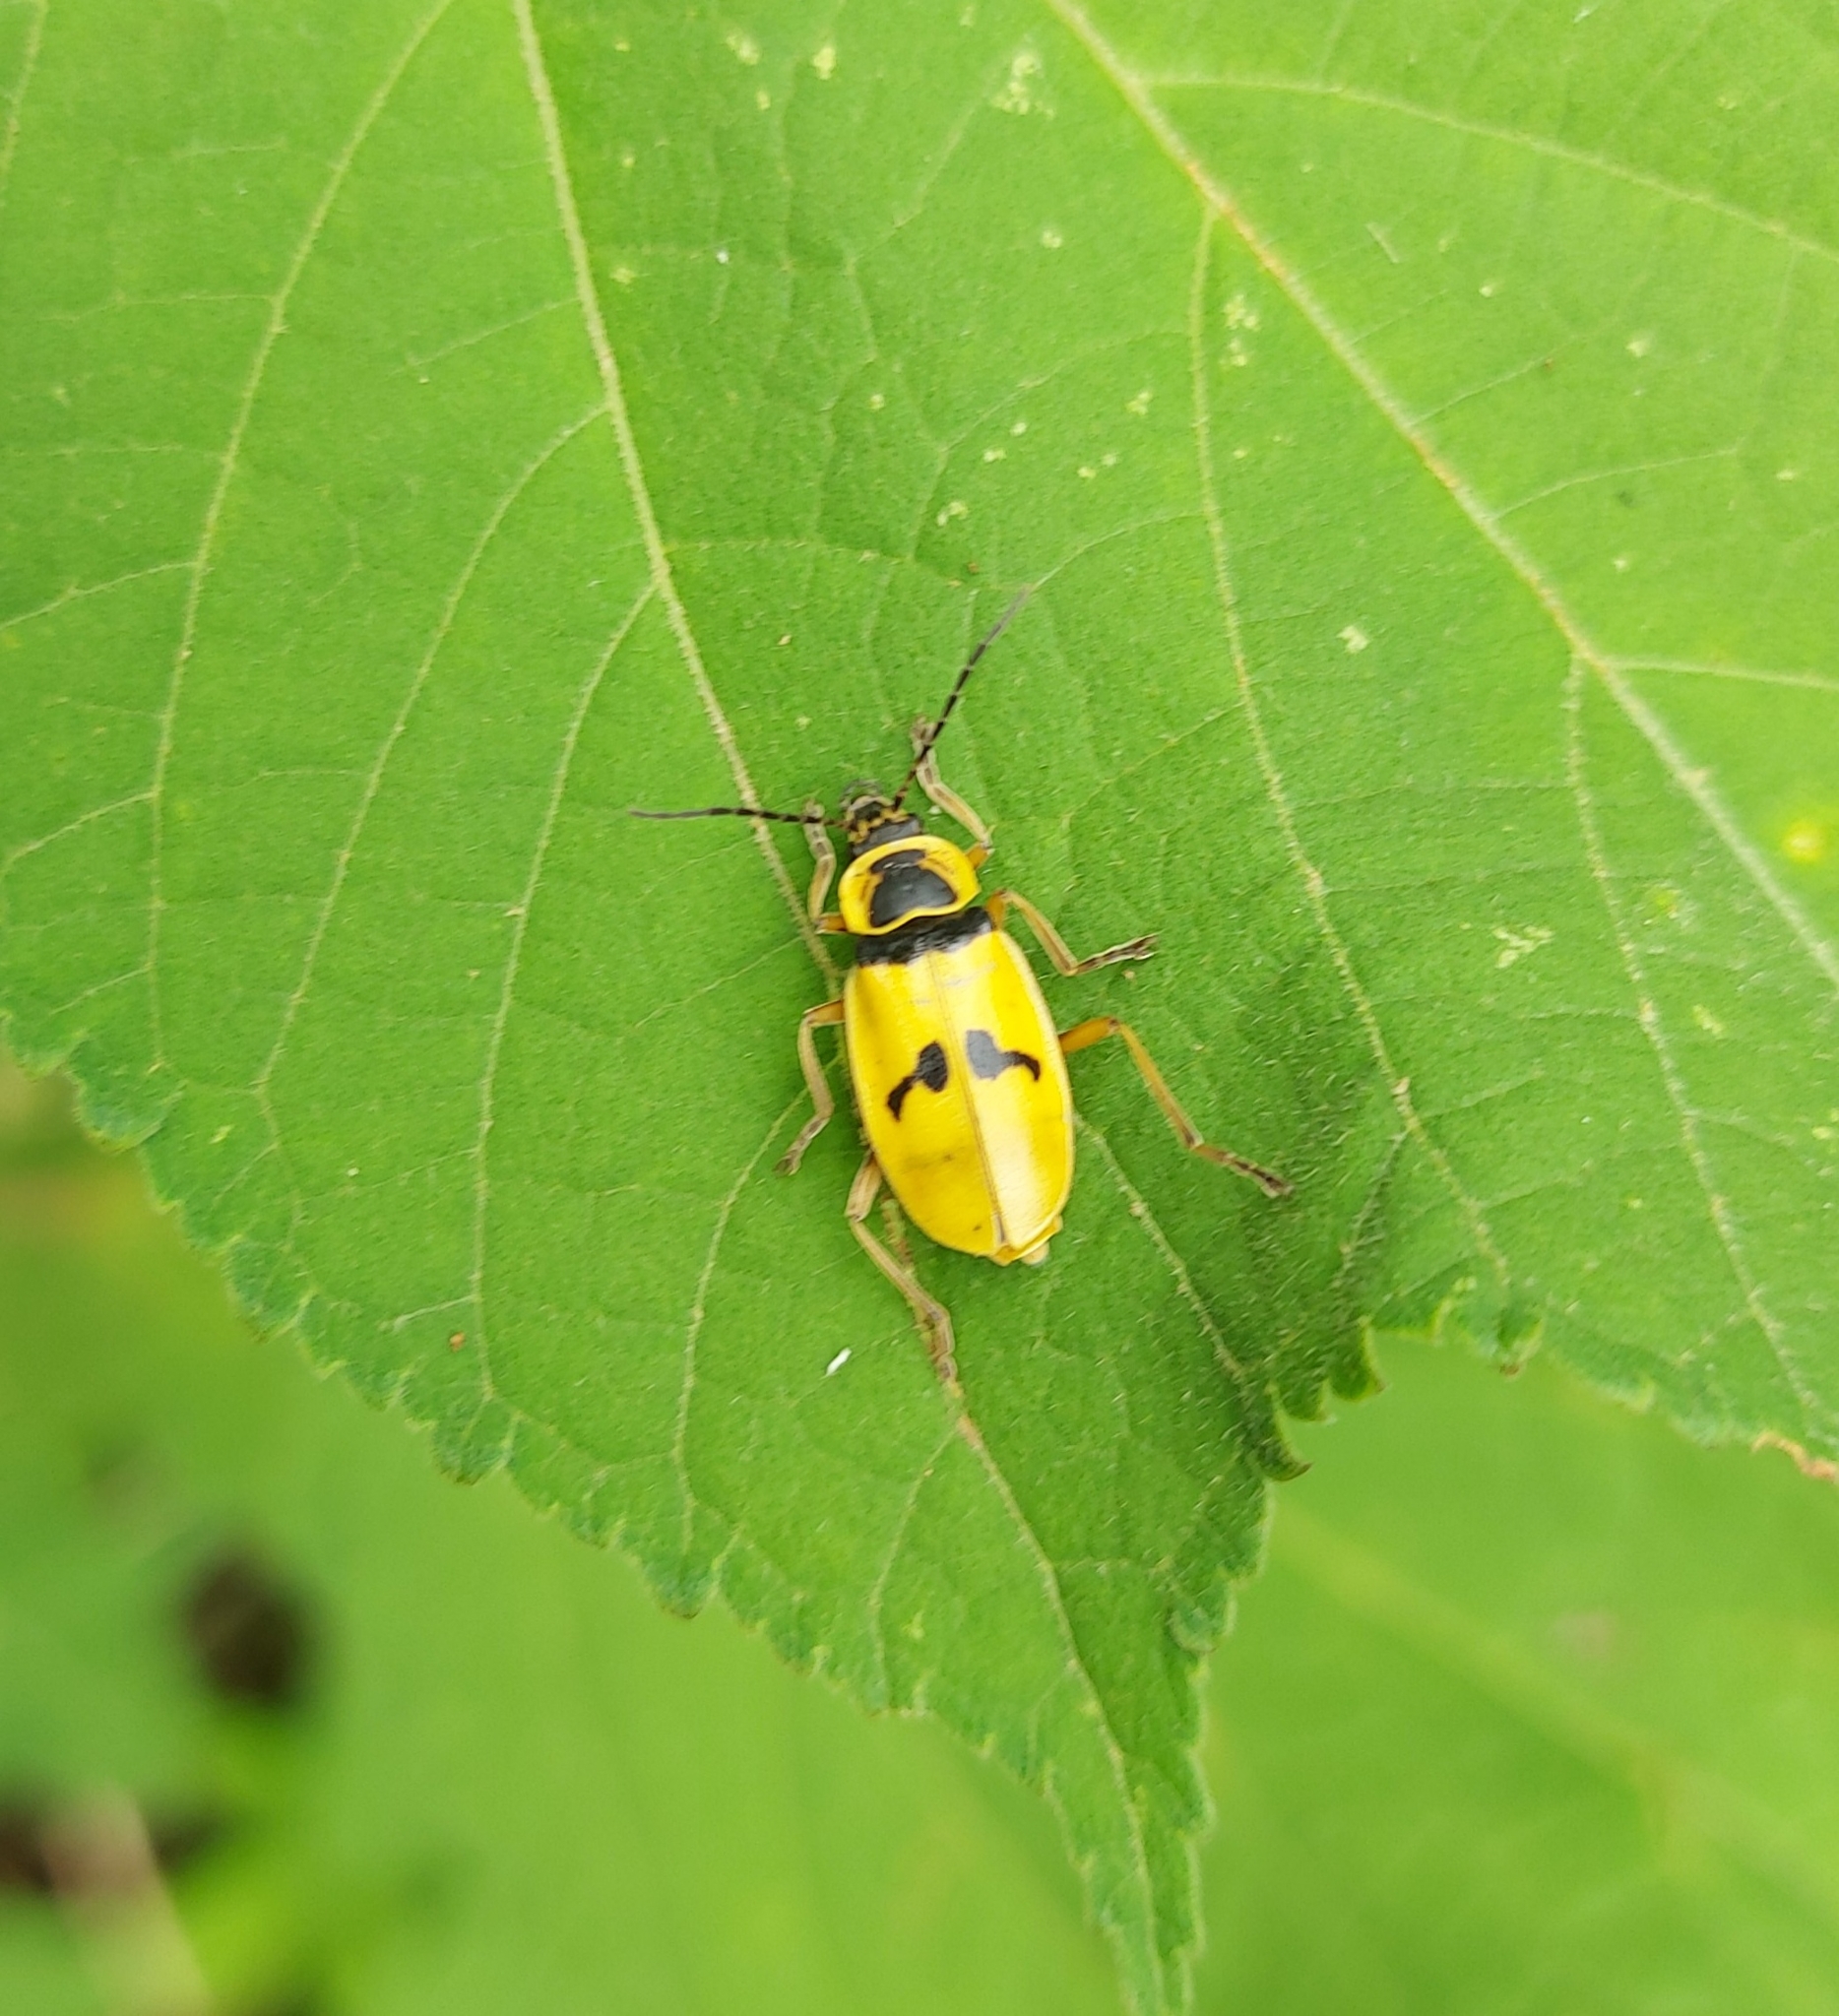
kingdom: Animalia
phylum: Arthropoda
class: Insecta
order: Coleoptera
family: Cantharidae
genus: Chauliognathus
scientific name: Chauliognathus
